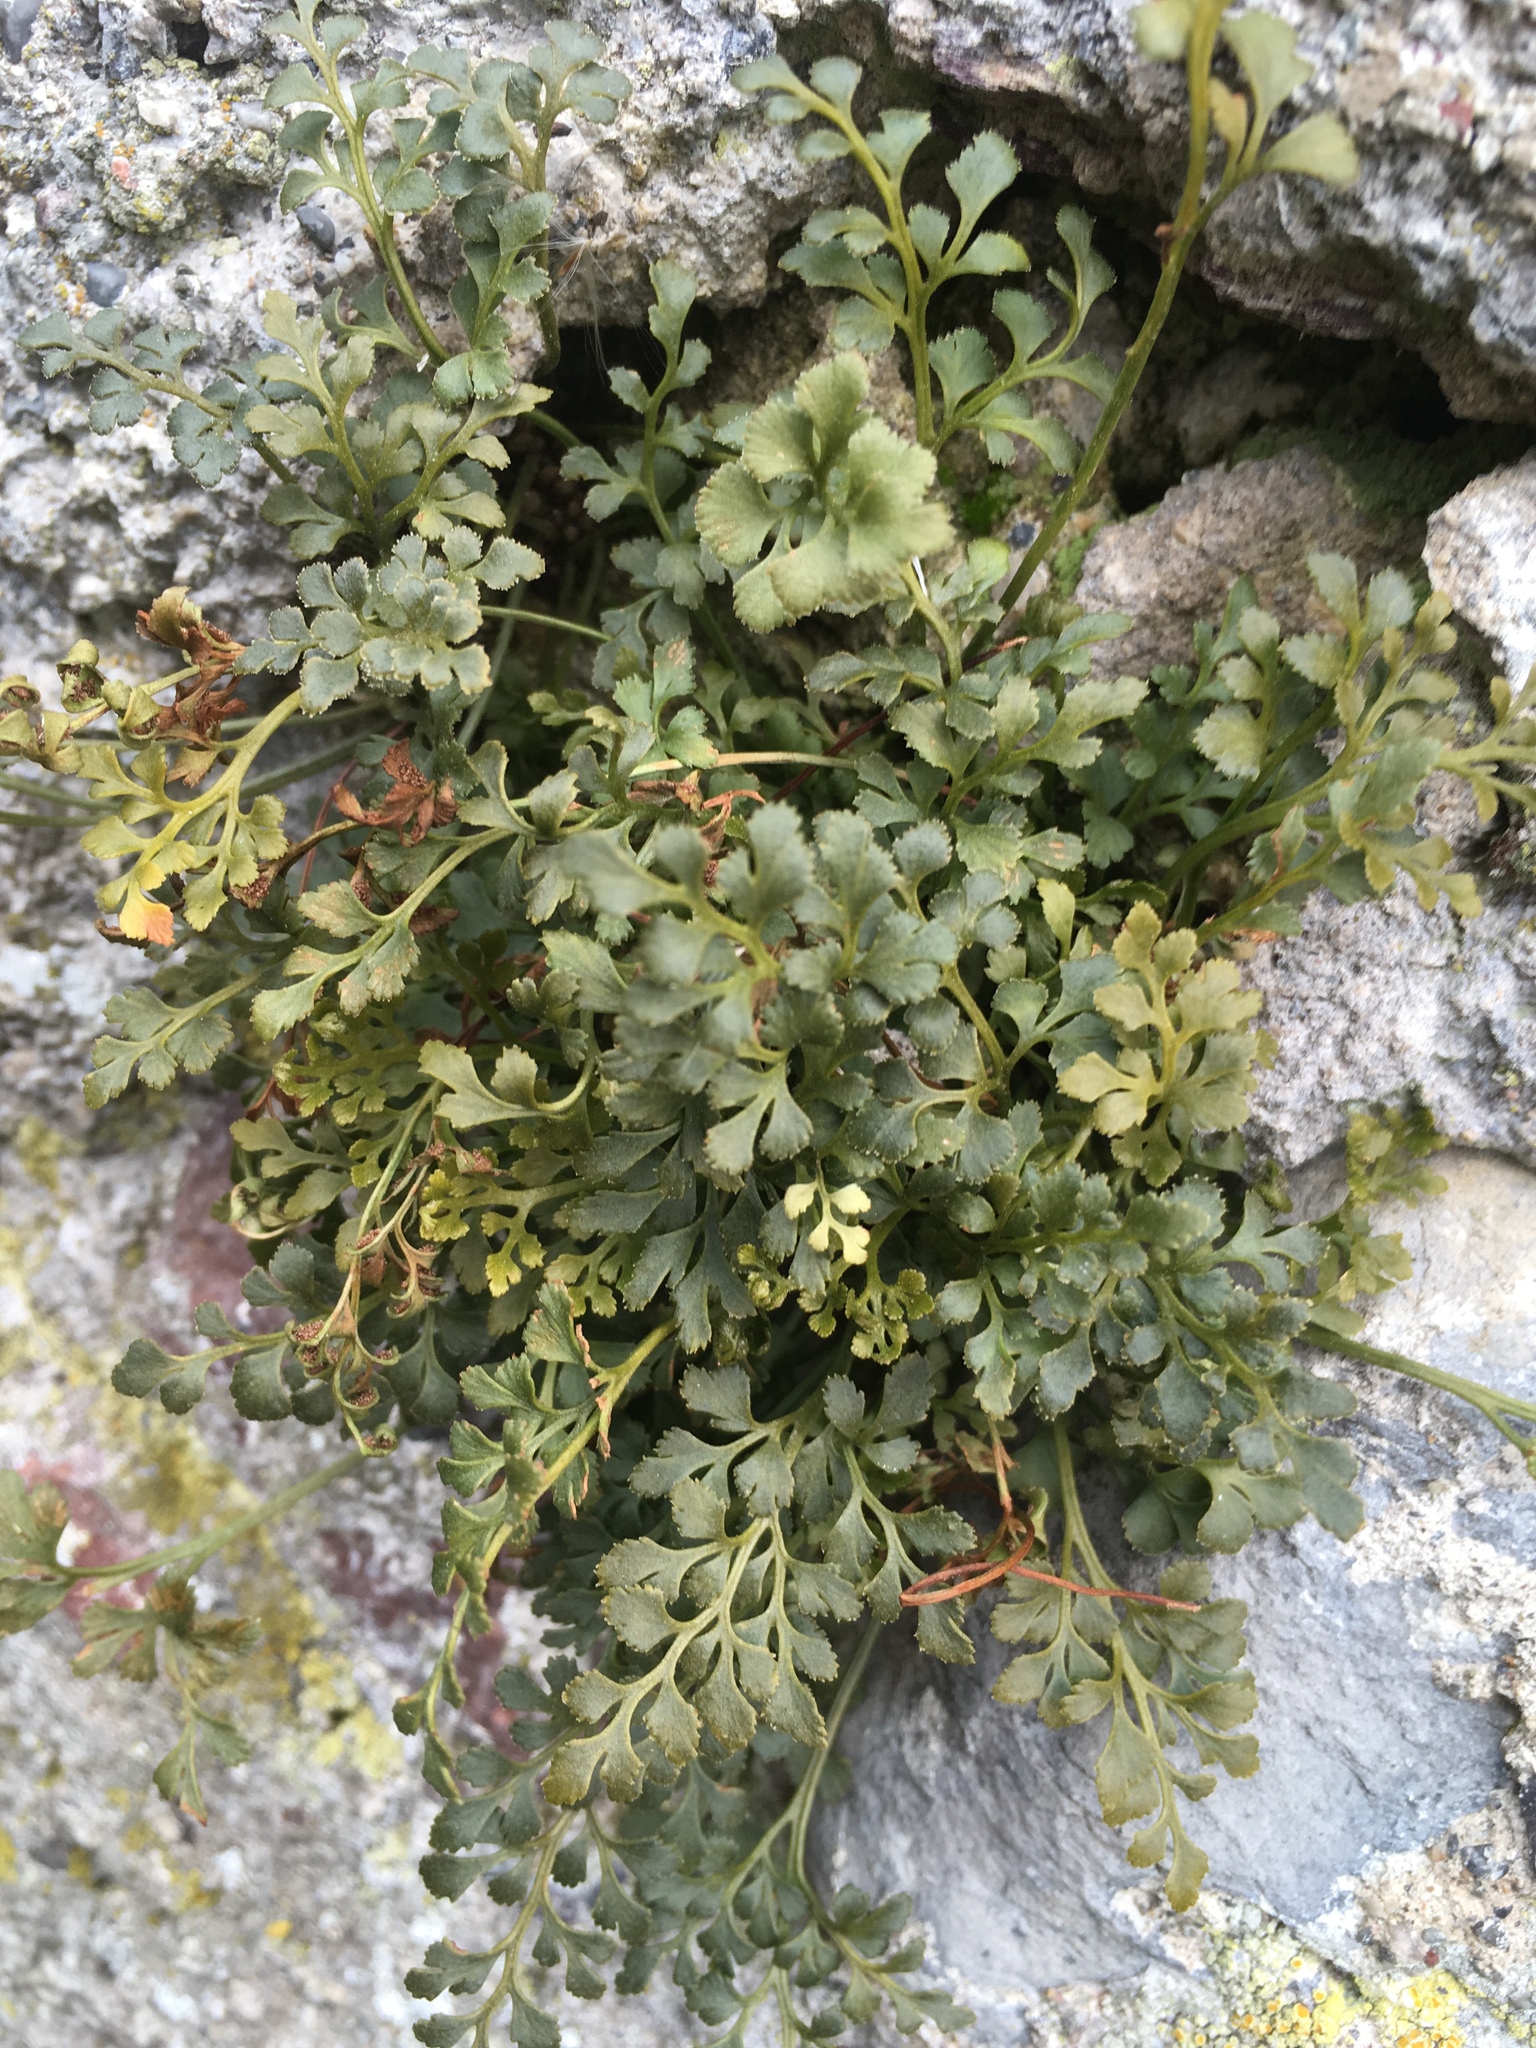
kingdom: Plantae
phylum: Tracheophyta
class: Polypodiopsida
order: Polypodiales
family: Aspleniaceae
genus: Asplenium
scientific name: Asplenium ruta-muraria
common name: Wall-rue
